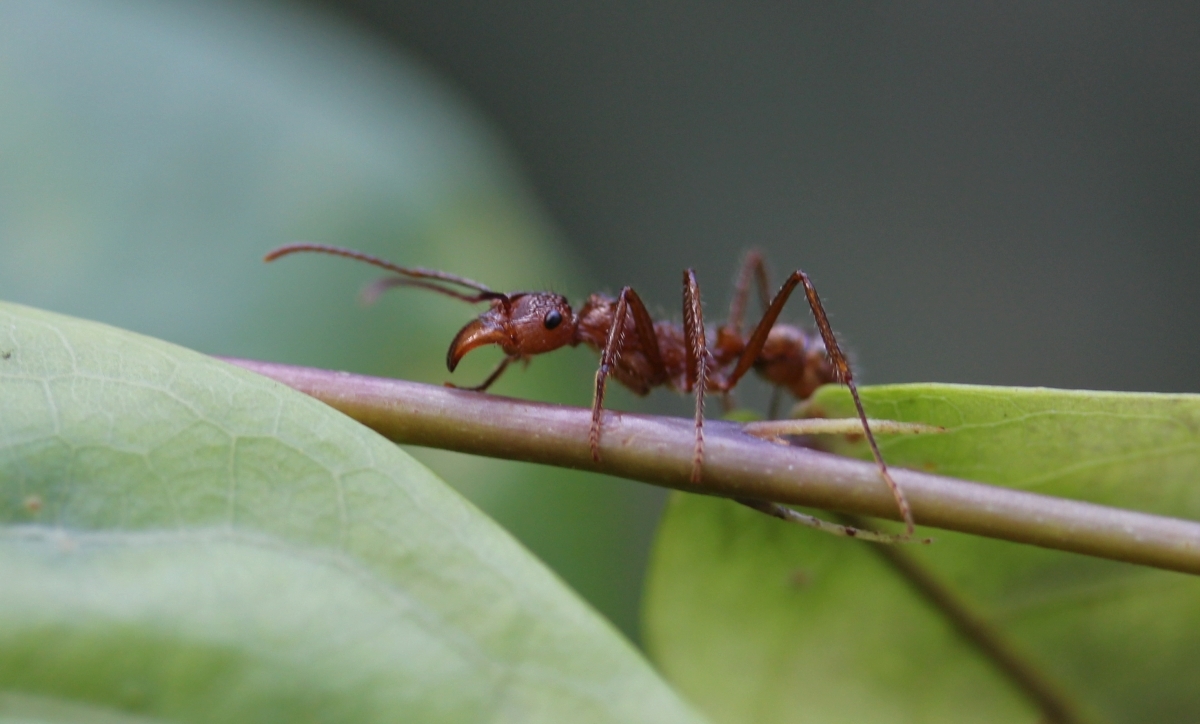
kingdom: Animalia
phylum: Arthropoda
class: Insecta
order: Hymenoptera
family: Formicidae
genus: Ectatomma
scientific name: Ectatomma tuberculatum
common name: Ant
